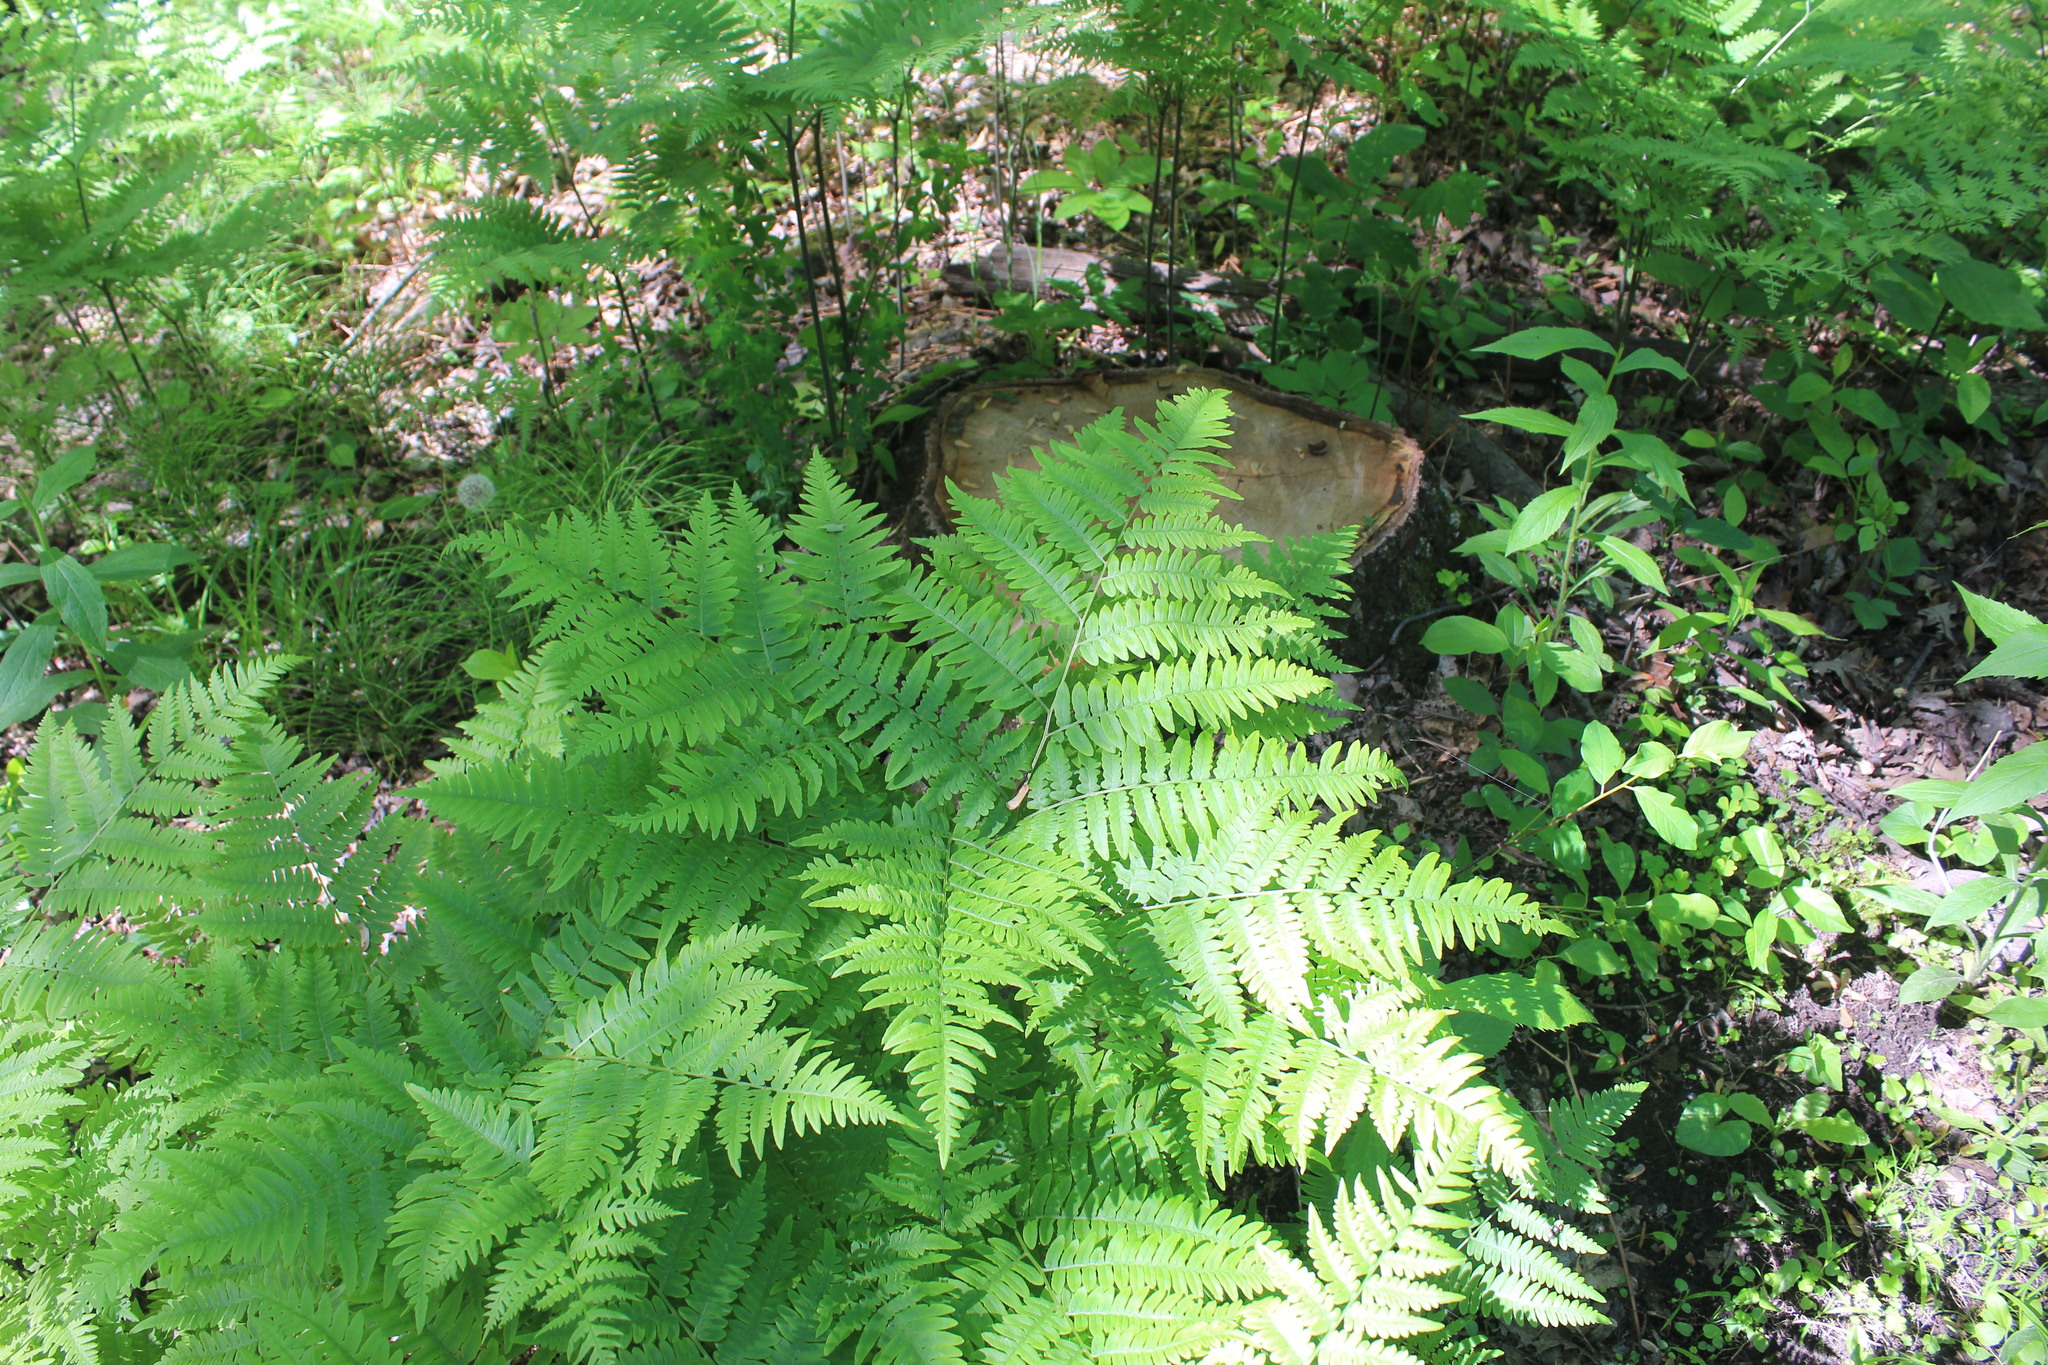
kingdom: Plantae
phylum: Tracheophyta
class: Polypodiopsida
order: Polypodiales
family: Dennstaedtiaceae
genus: Pteridium
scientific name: Pteridium aquilinum
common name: Bracken
